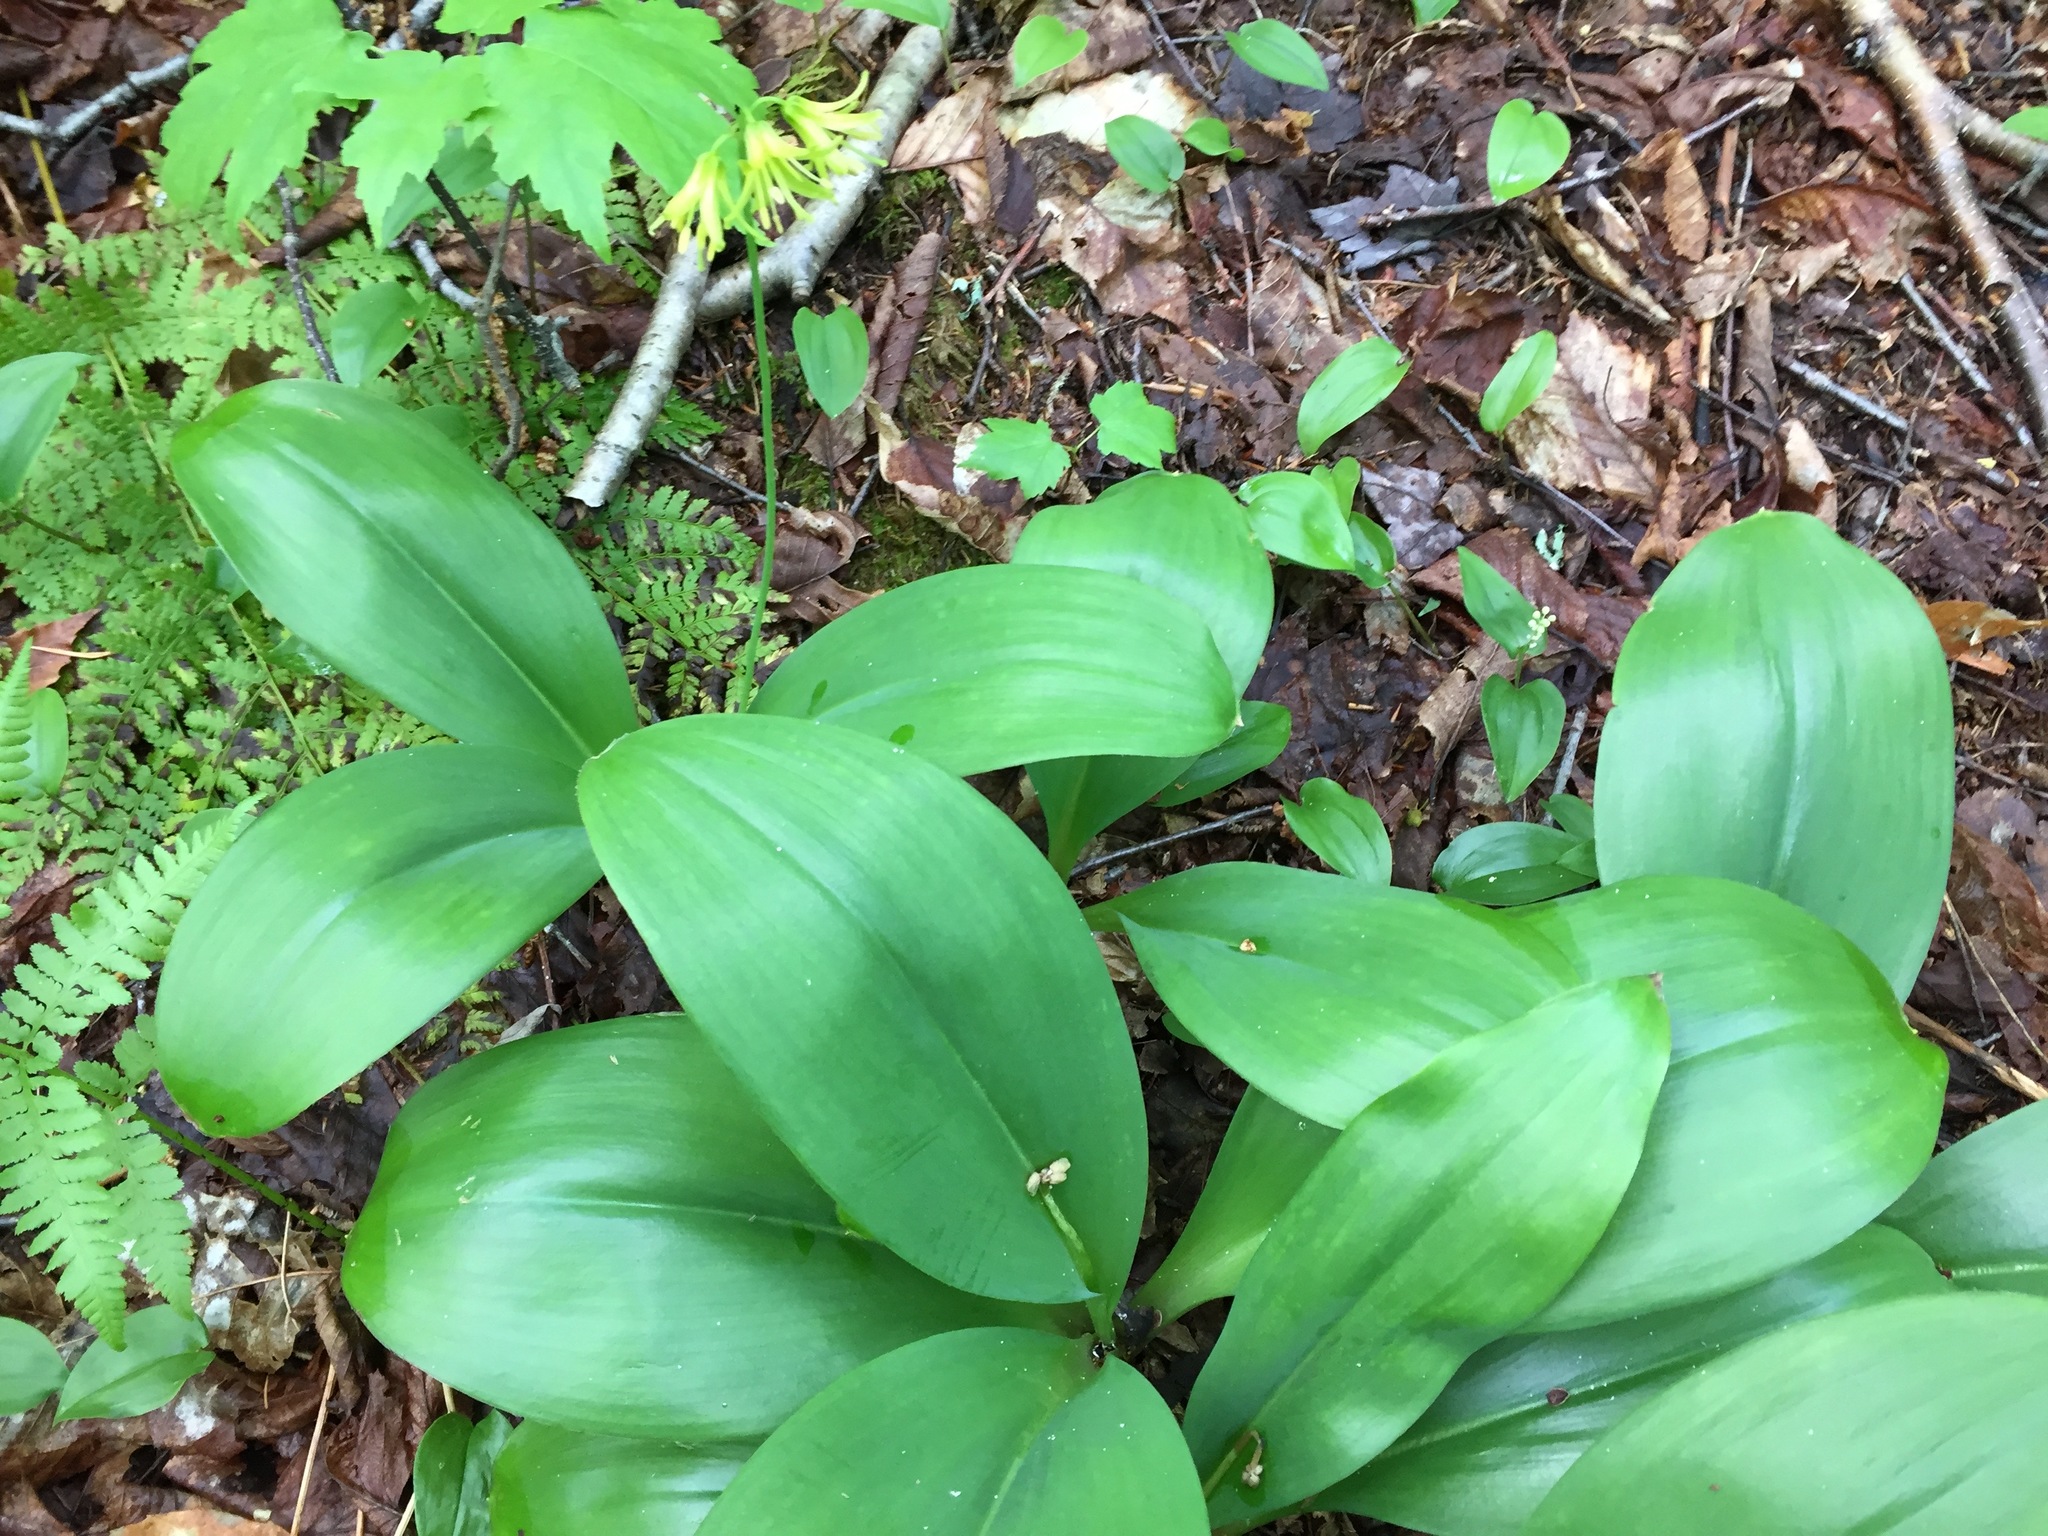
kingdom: Plantae
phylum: Tracheophyta
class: Liliopsida
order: Liliales
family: Liliaceae
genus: Clintonia
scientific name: Clintonia borealis
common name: Yellow clintonia
